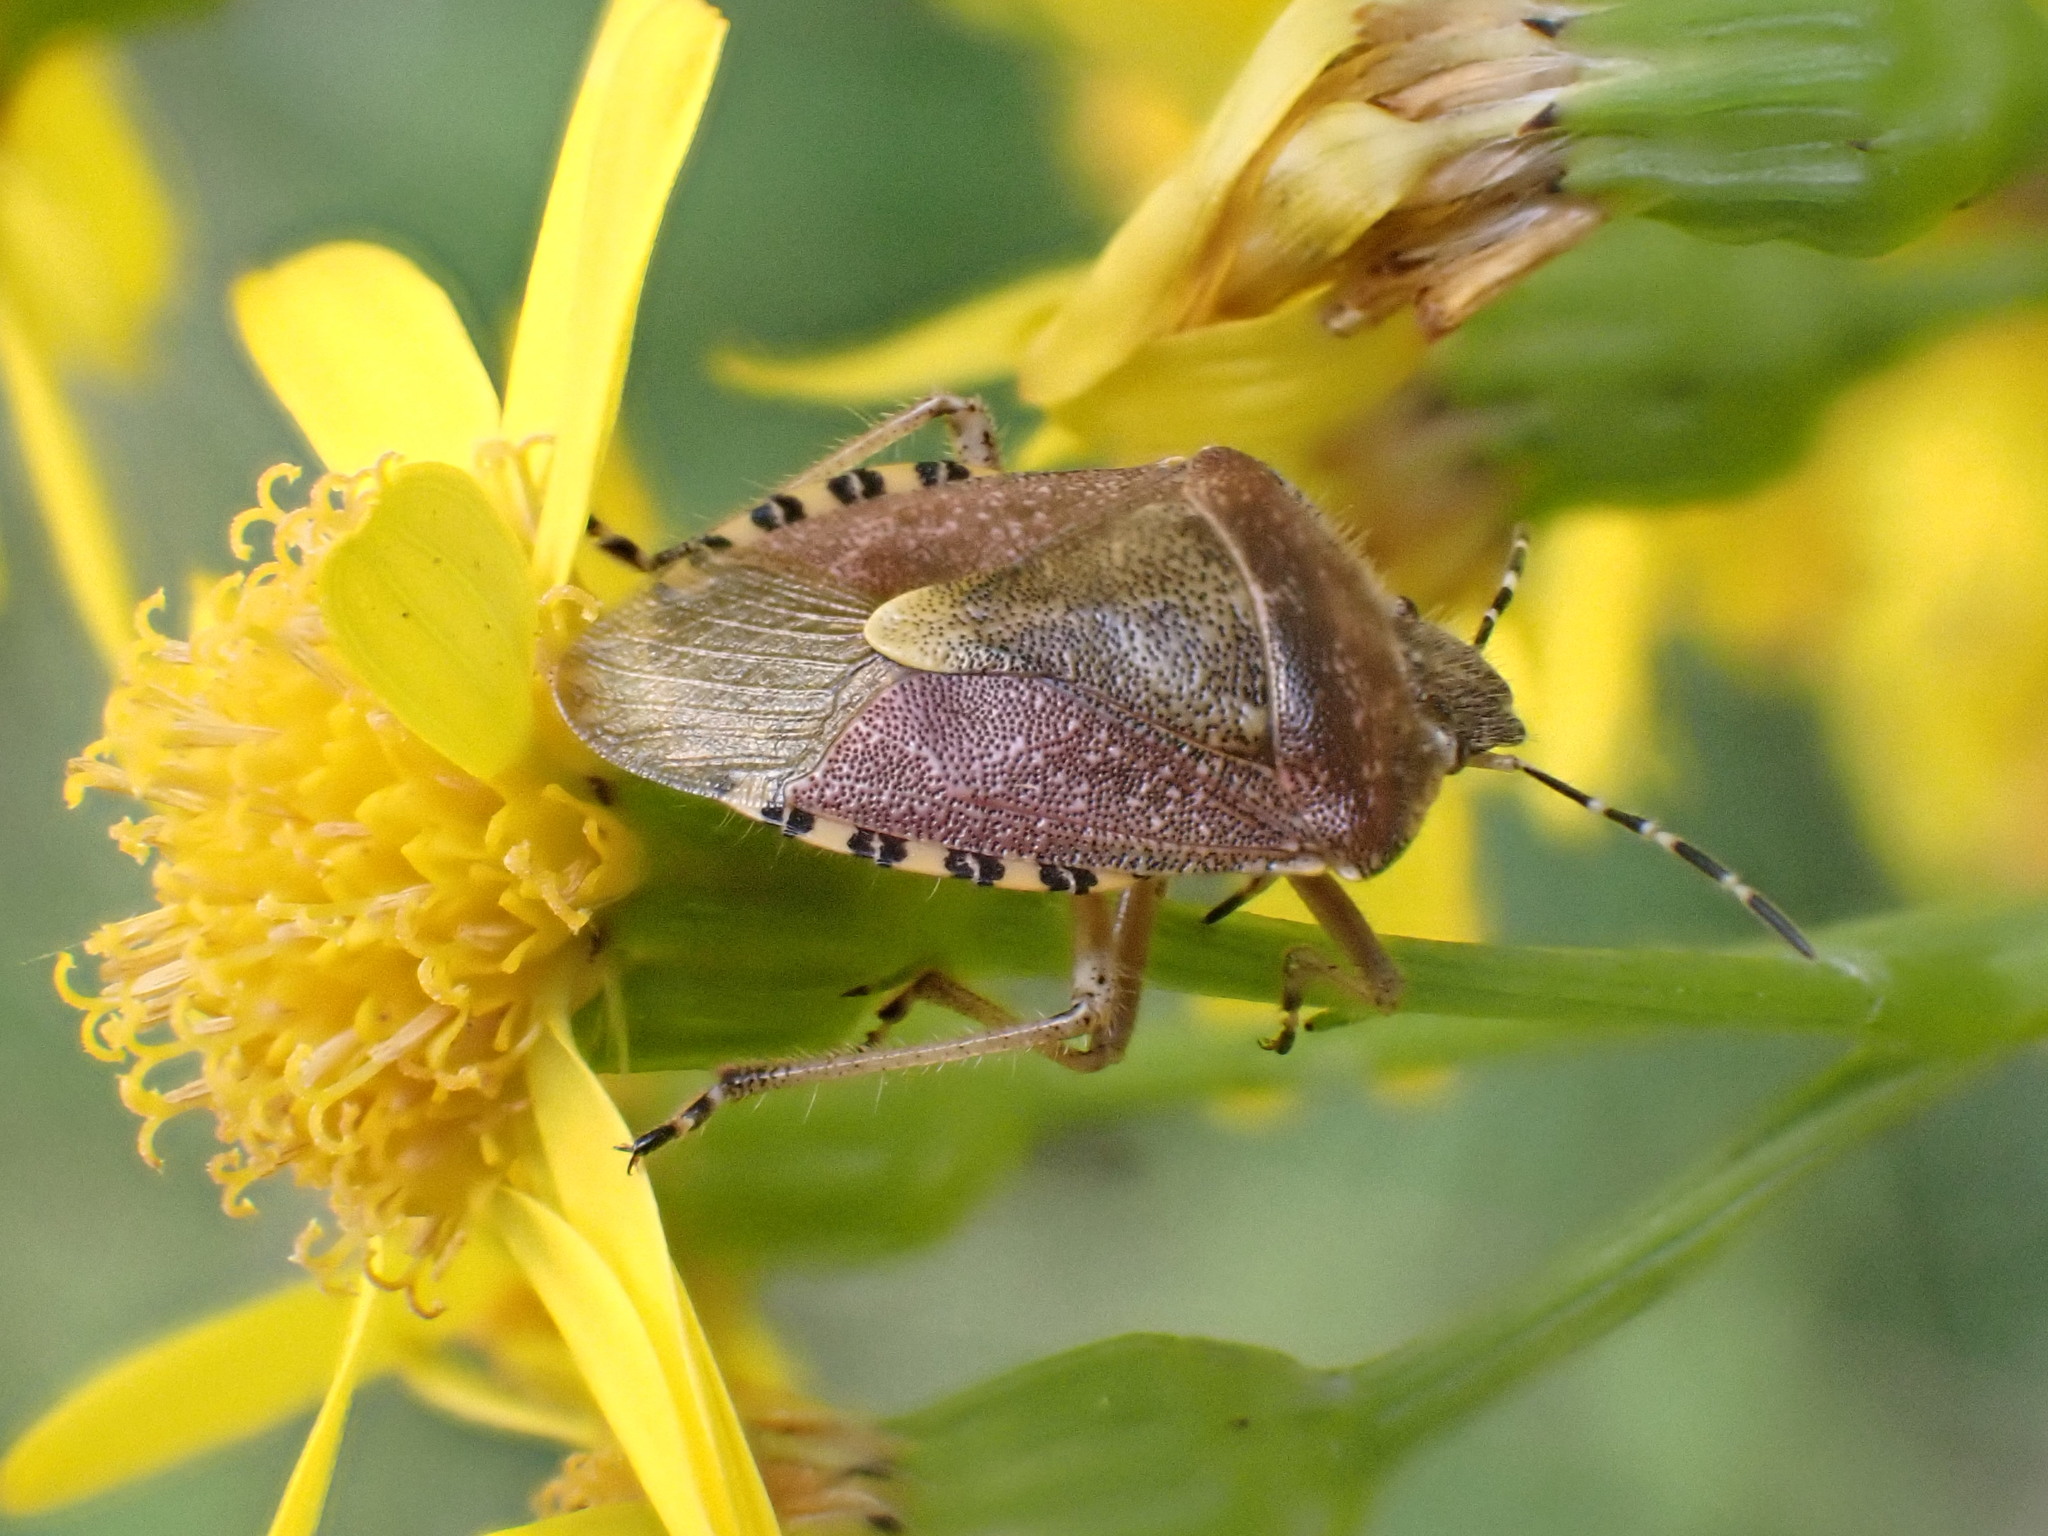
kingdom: Animalia
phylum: Arthropoda
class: Insecta
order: Hemiptera
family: Pentatomidae
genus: Dolycoris
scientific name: Dolycoris baccarum
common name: Sloe bug
